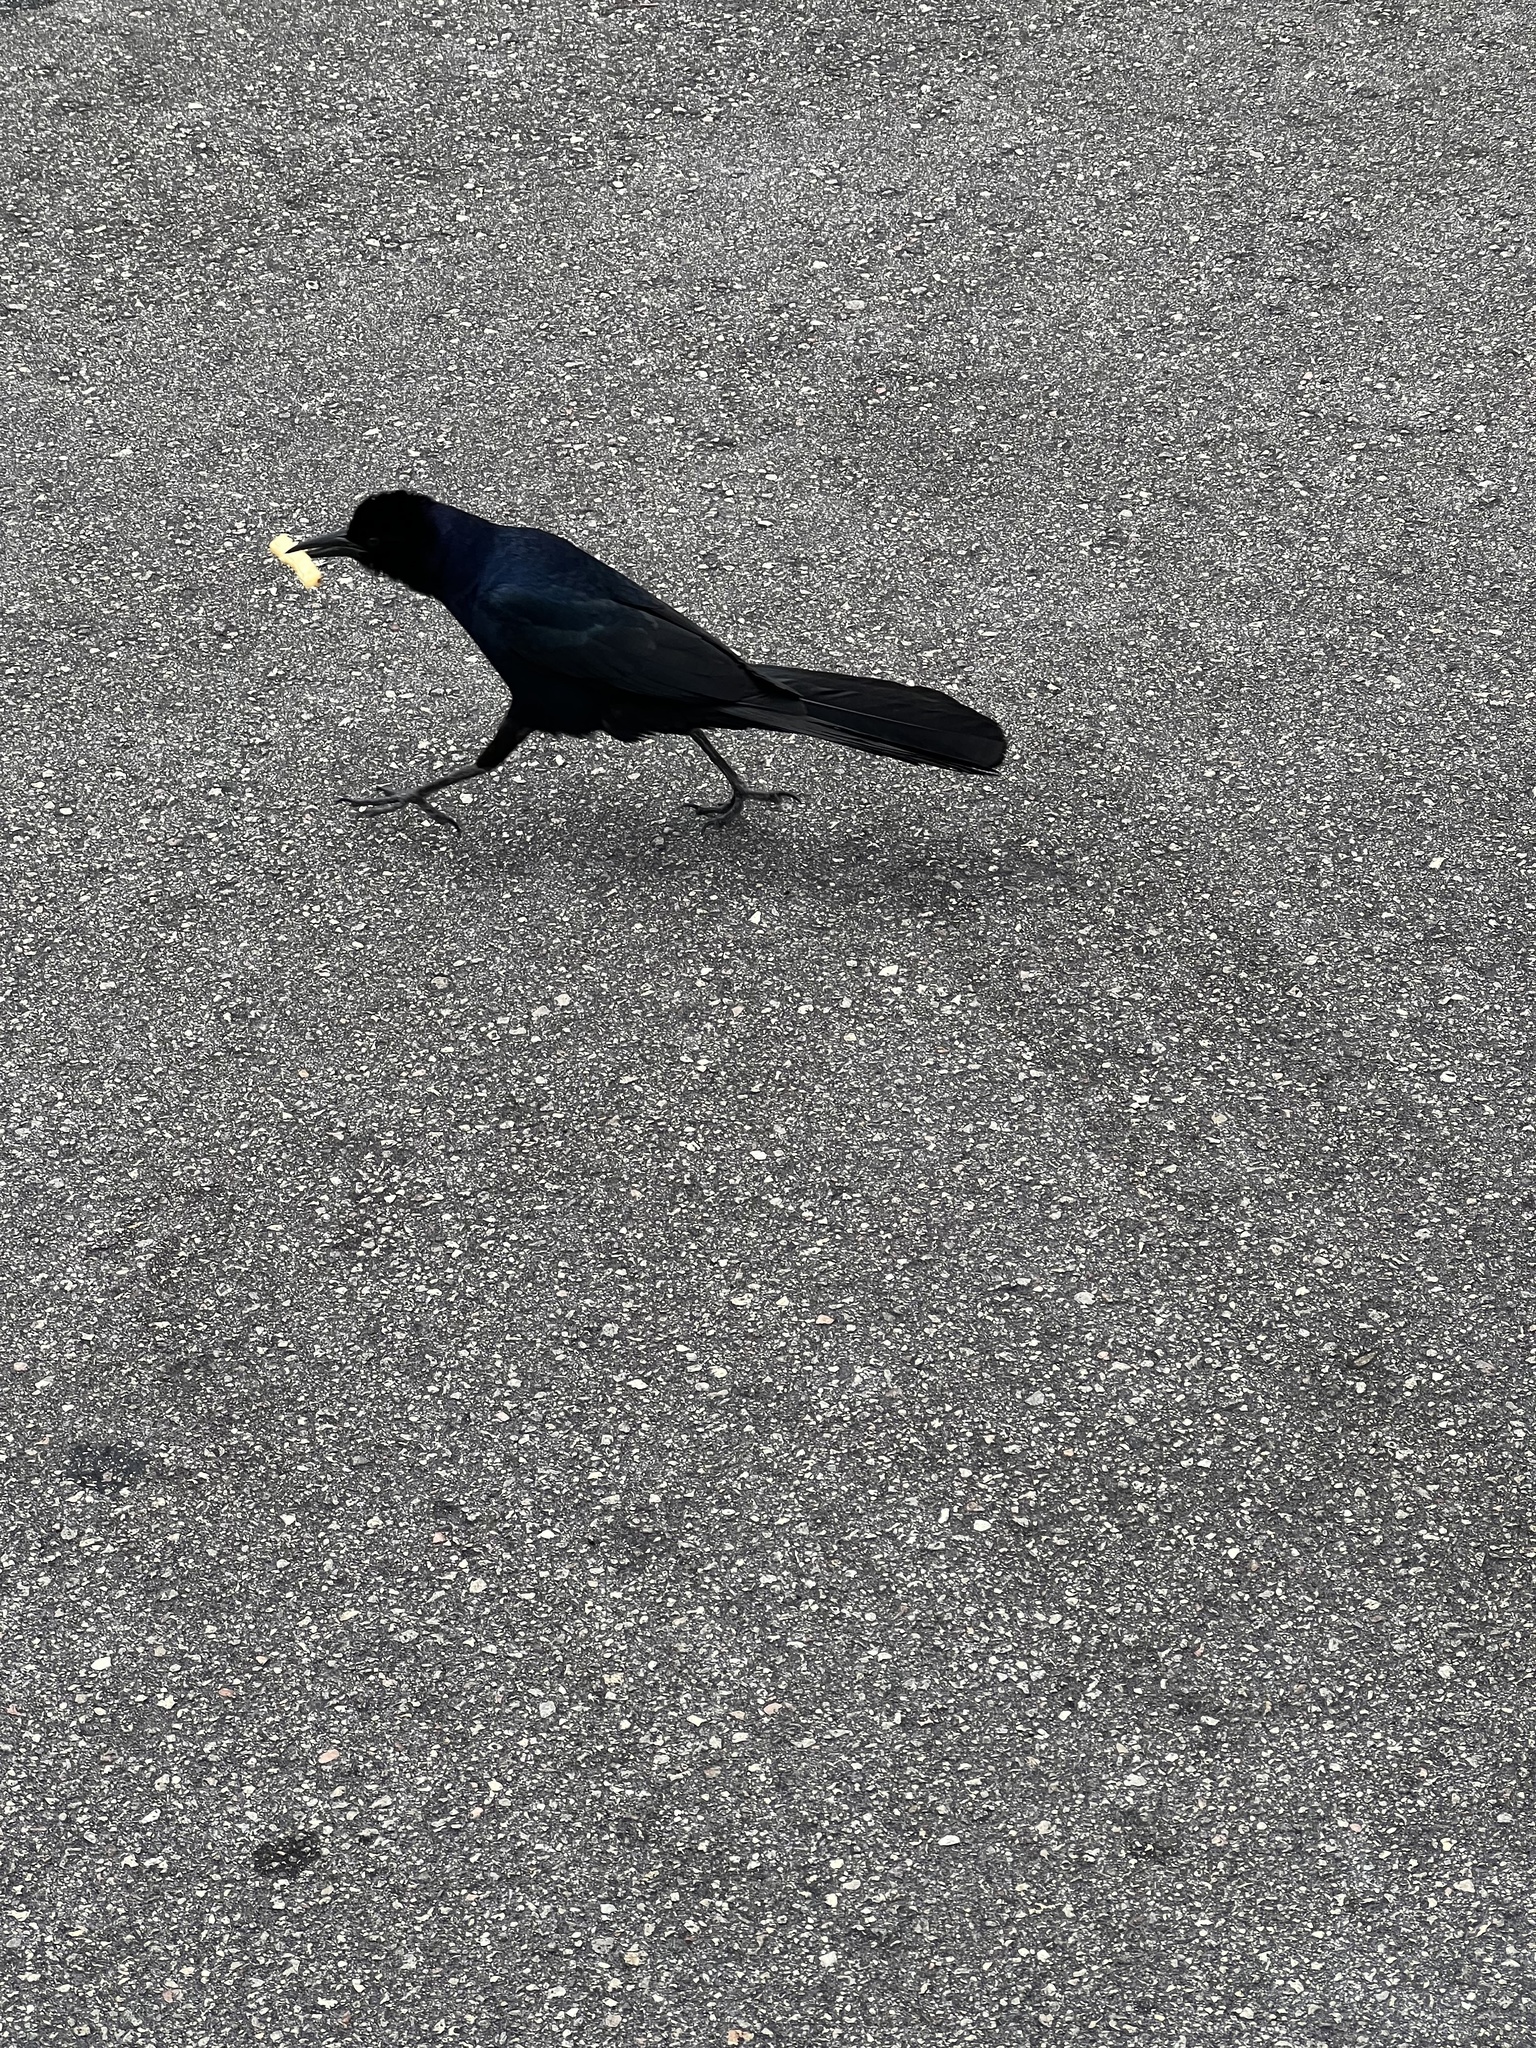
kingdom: Animalia
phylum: Chordata
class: Aves
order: Passeriformes
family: Icteridae
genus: Quiscalus
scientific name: Quiscalus major
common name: Boat-tailed grackle
